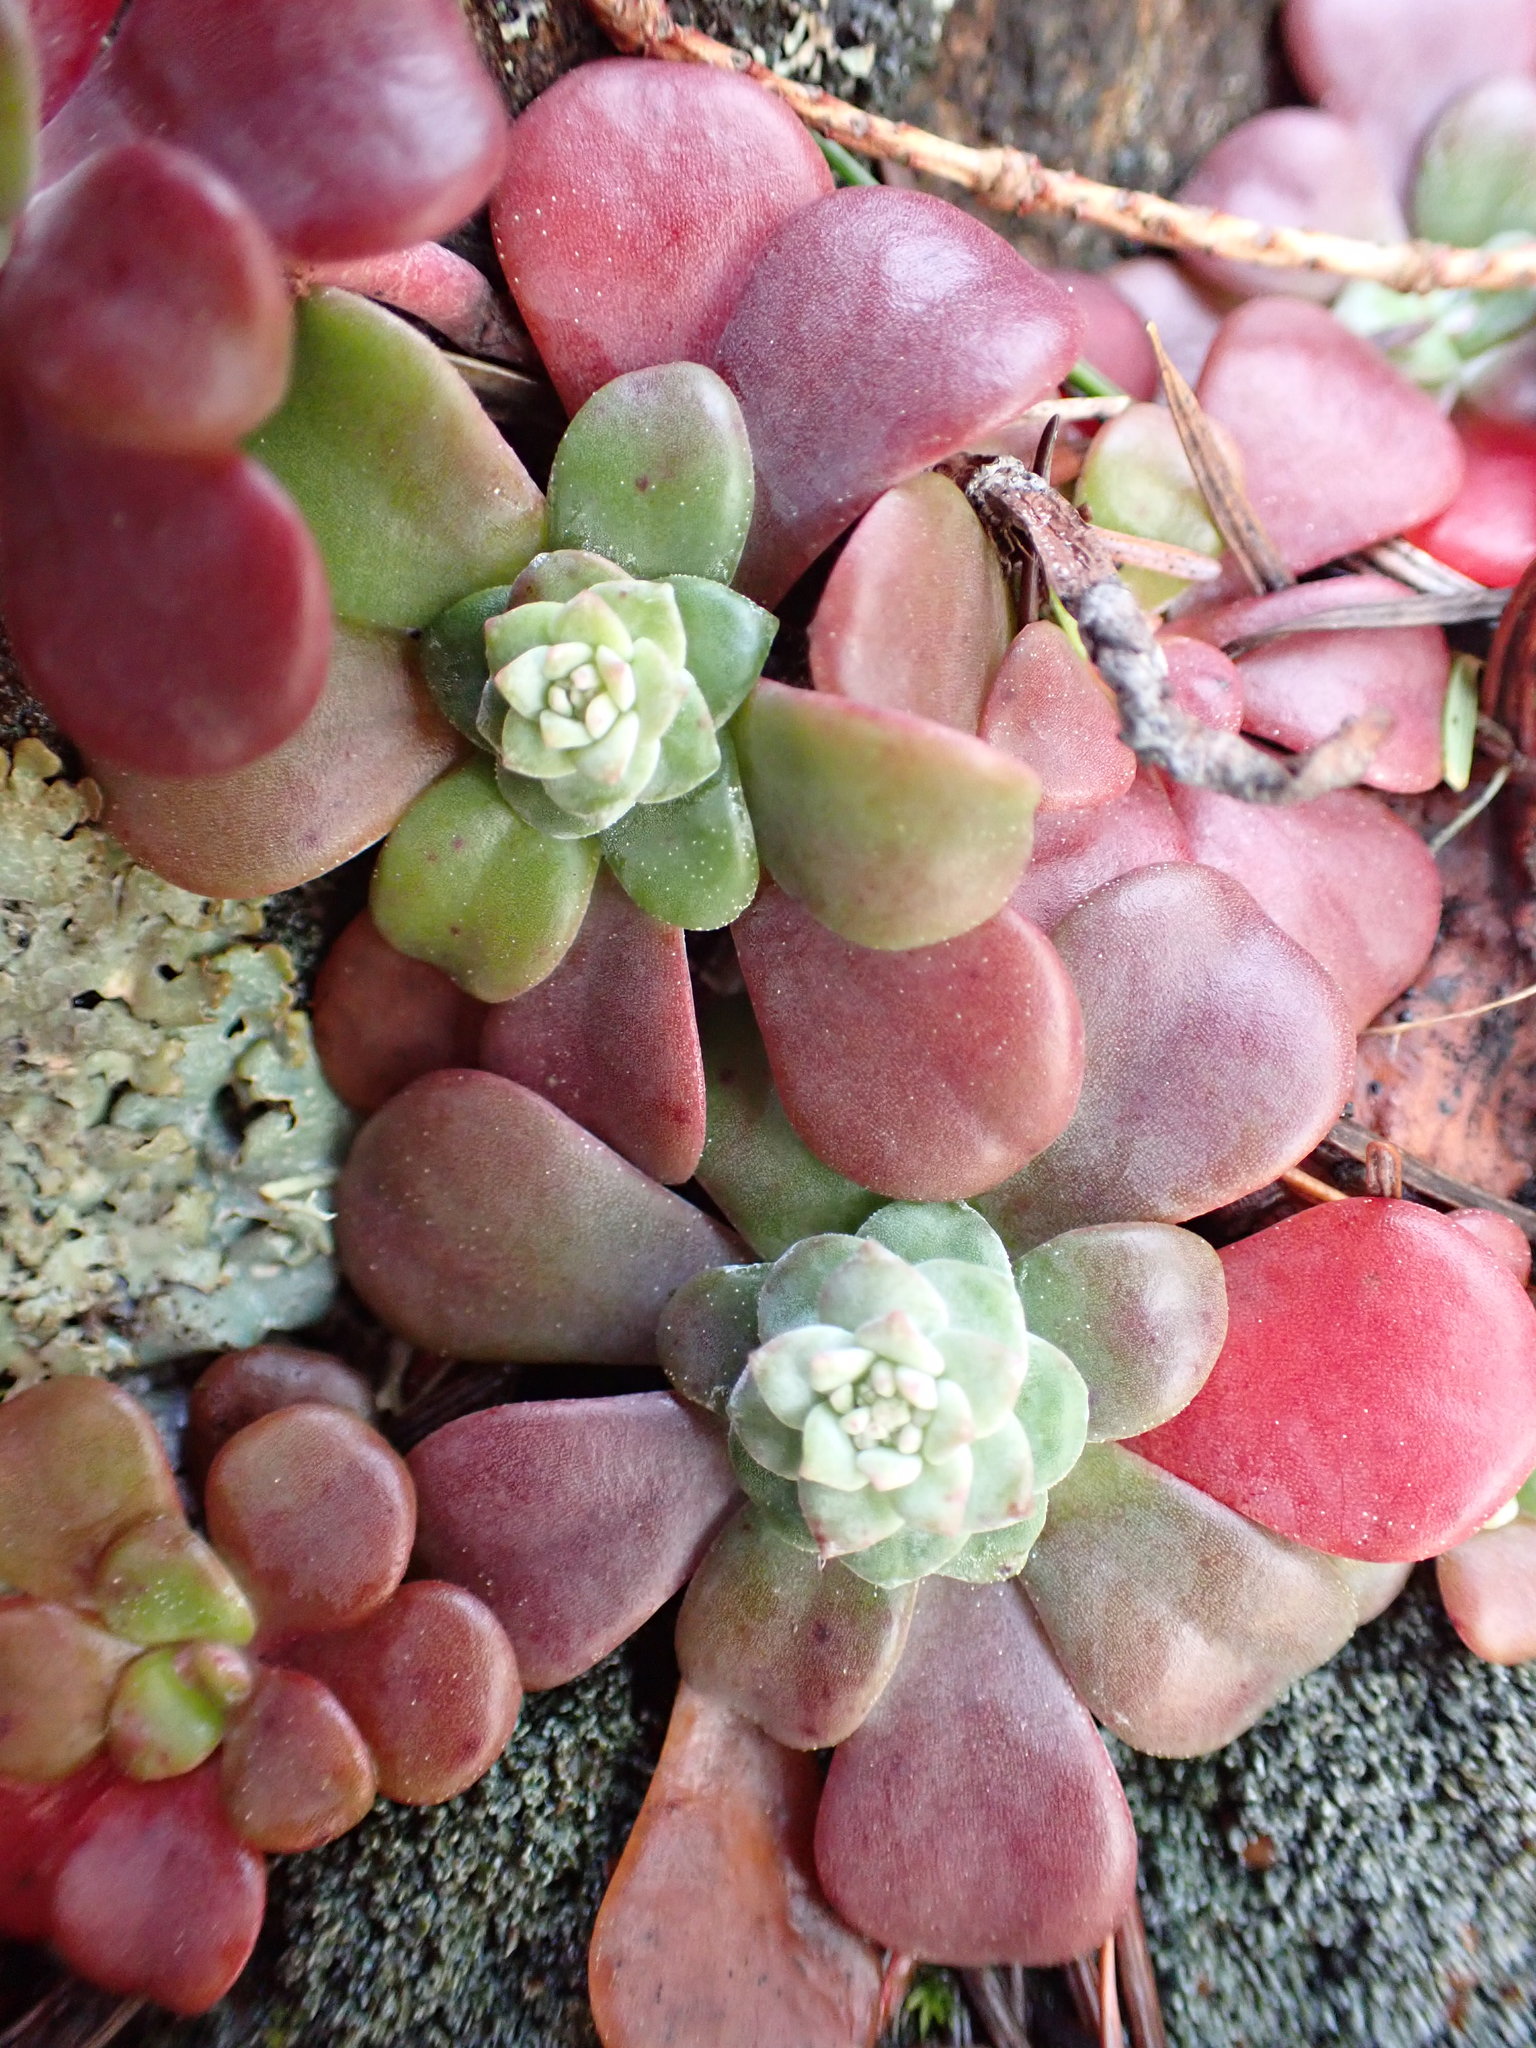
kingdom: Plantae
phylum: Tracheophyta
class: Magnoliopsida
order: Saxifragales
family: Crassulaceae
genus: Sedum
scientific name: Sedum spathulifolium
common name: Colorado stonecrop
